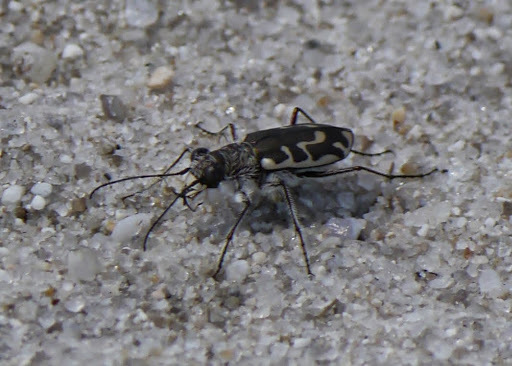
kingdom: Animalia
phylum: Arthropoda
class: Insecta
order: Coleoptera
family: Carabidae
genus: Cicindela
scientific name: Cicindela hirticollis
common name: Hairy-necked tiger beetle
